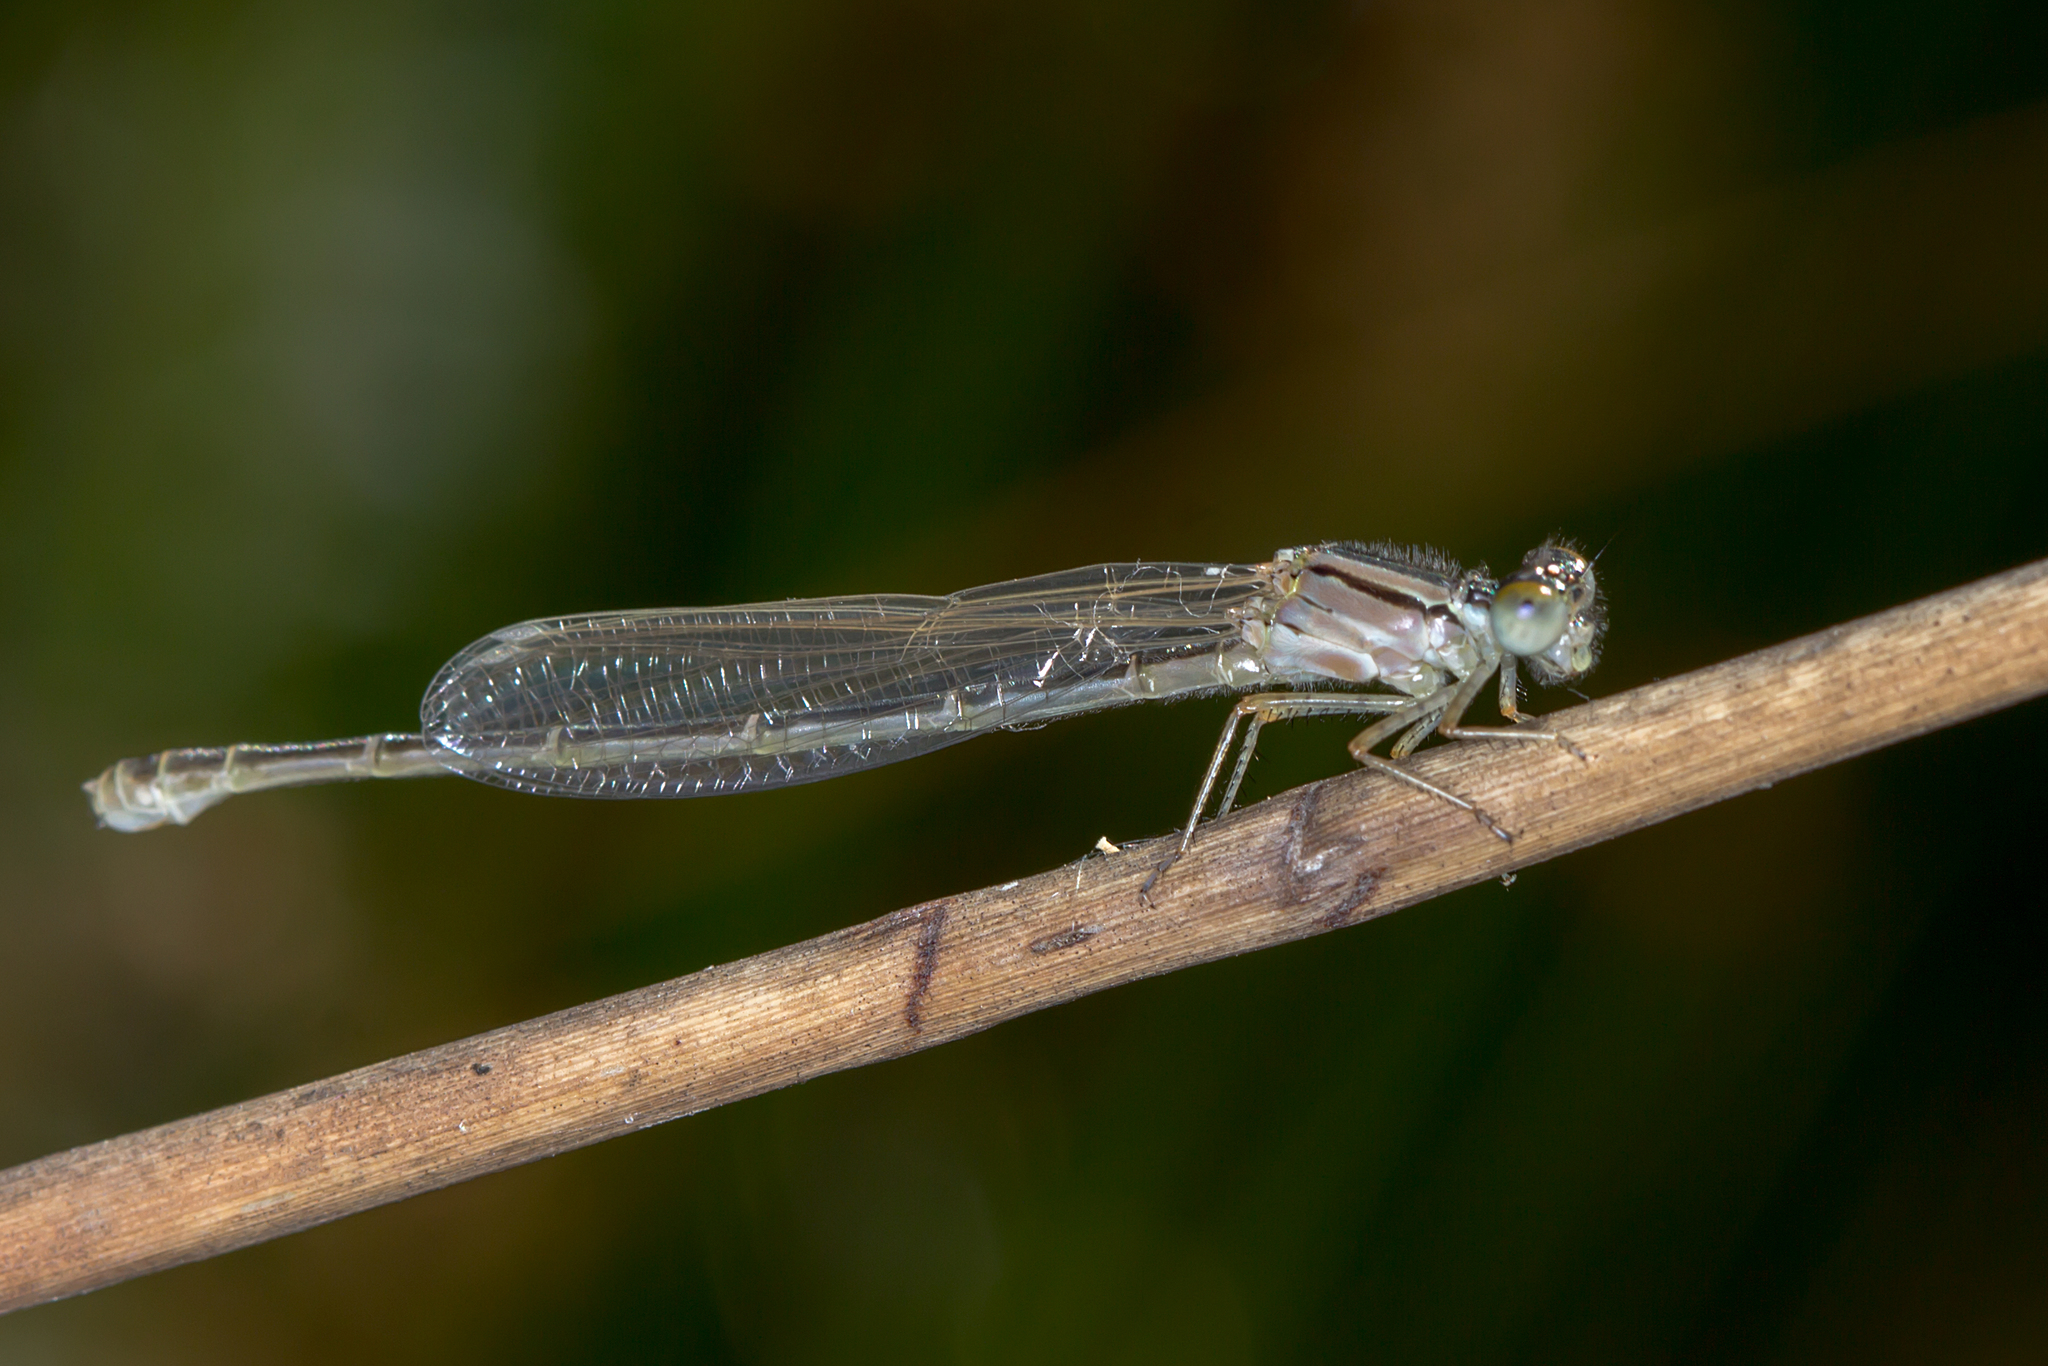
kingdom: Animalia
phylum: Arthropoda
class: Insecta
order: Odonata
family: Coenagrionidae
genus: Xanthagrion
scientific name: Xanthagrion erythroneurum
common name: Red and blue damsel
